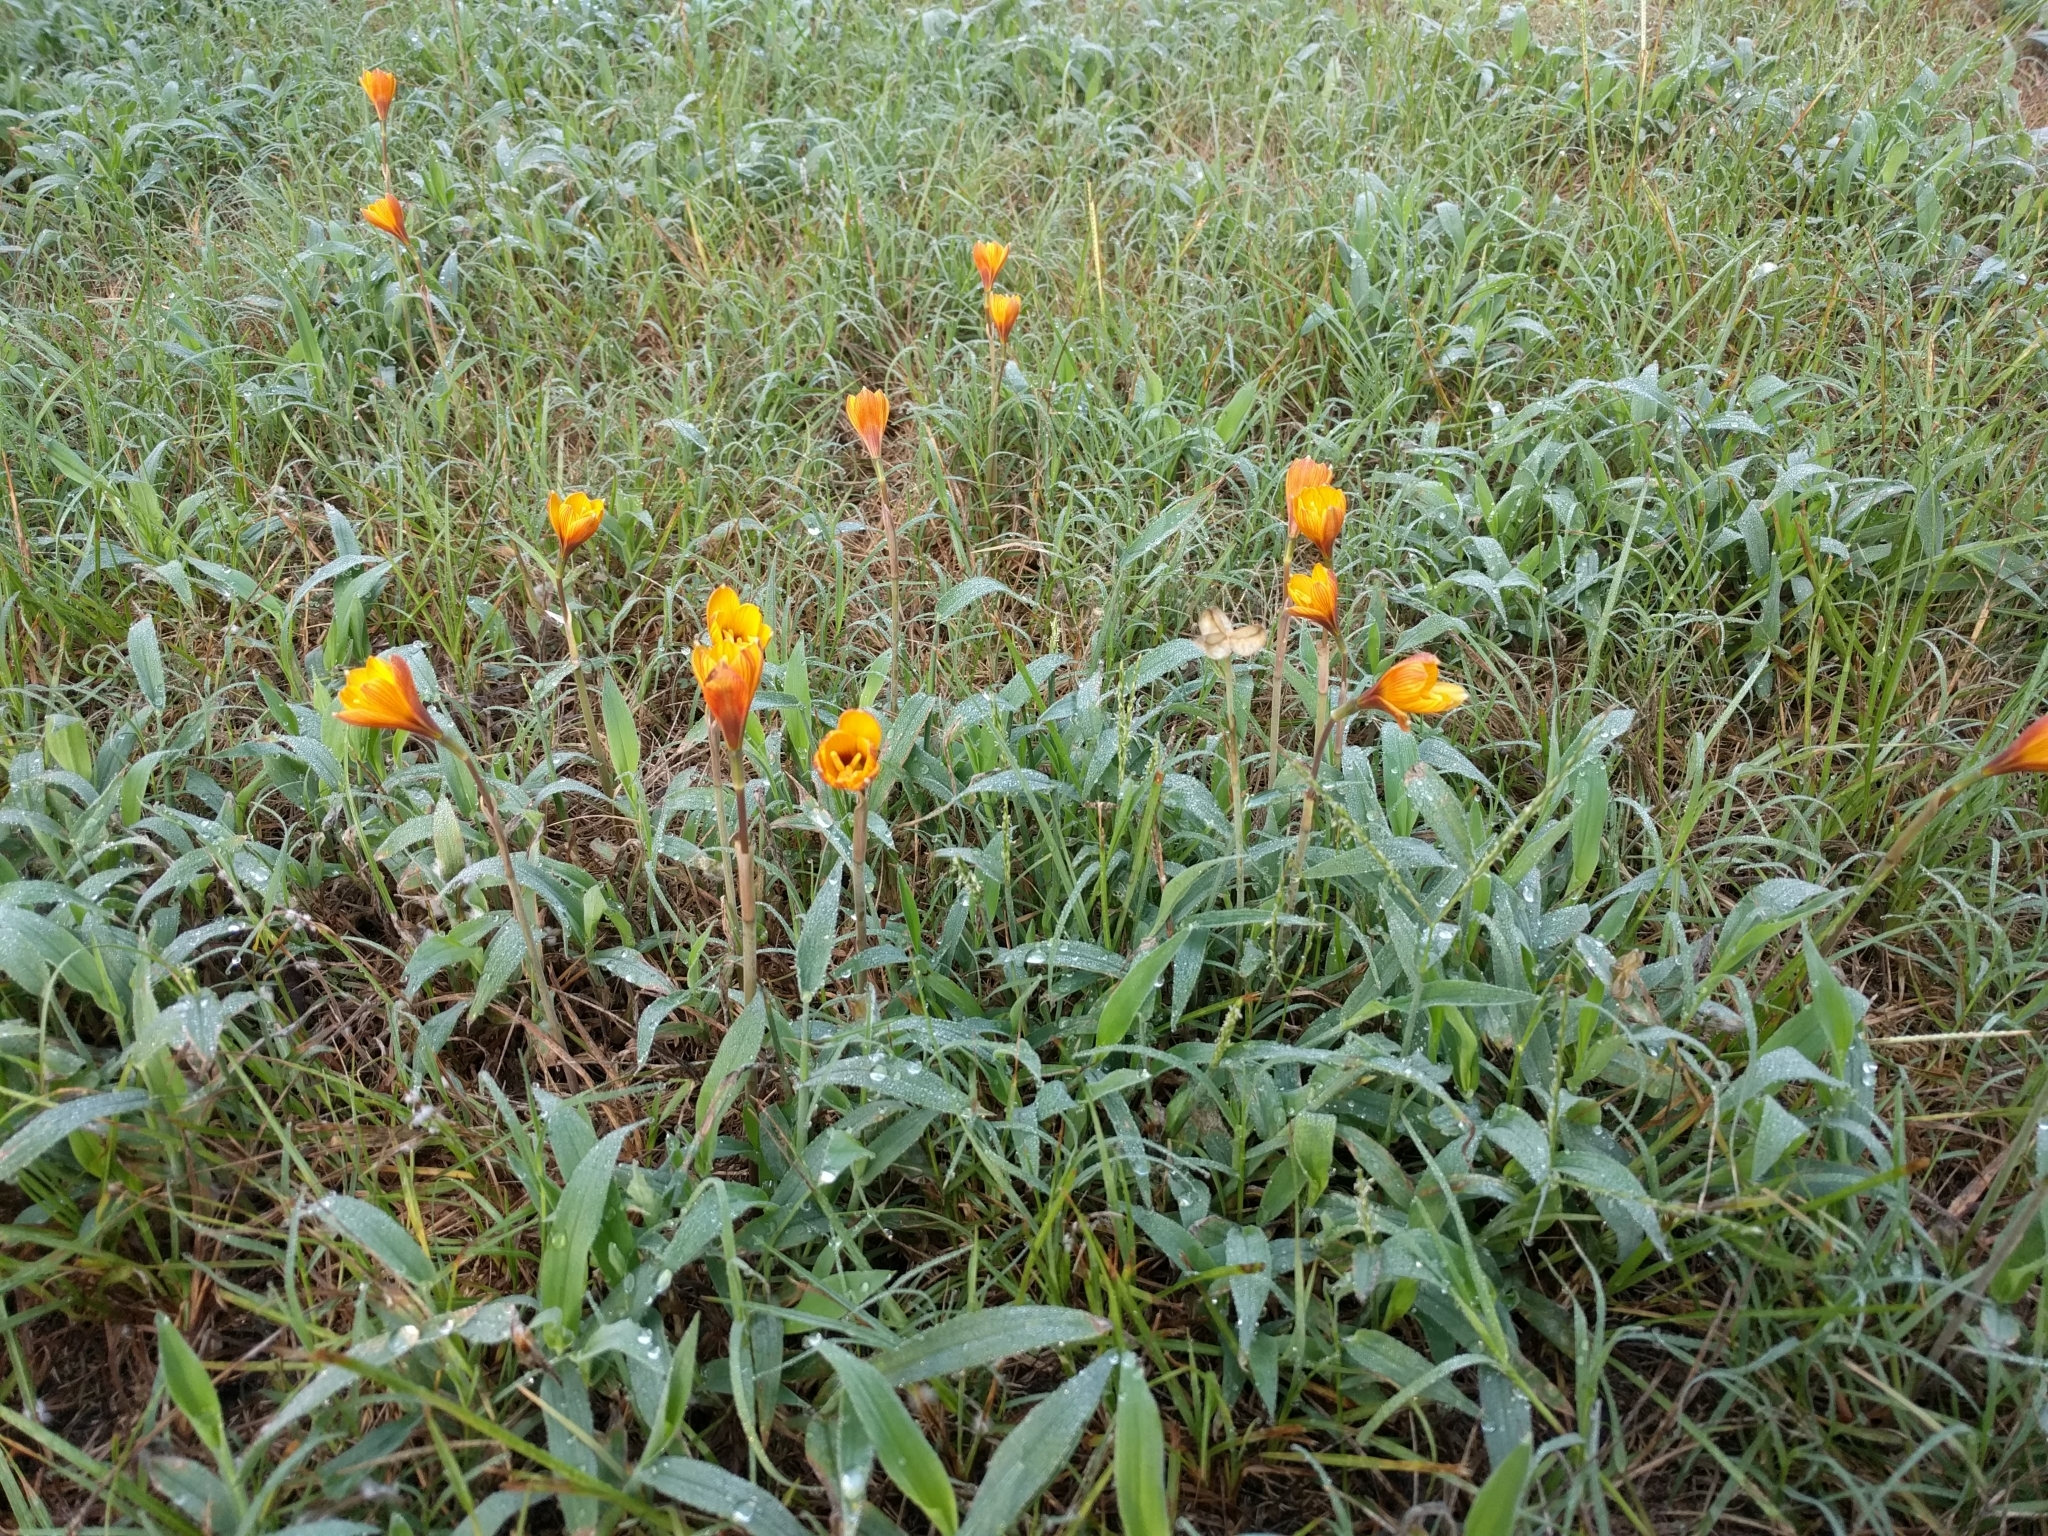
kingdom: Plantae
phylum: Tracheophyta
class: Liliopsida
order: Asparagales
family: Amaryllidaceae
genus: Zephyranthes
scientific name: Zephyranthes tubispatha
